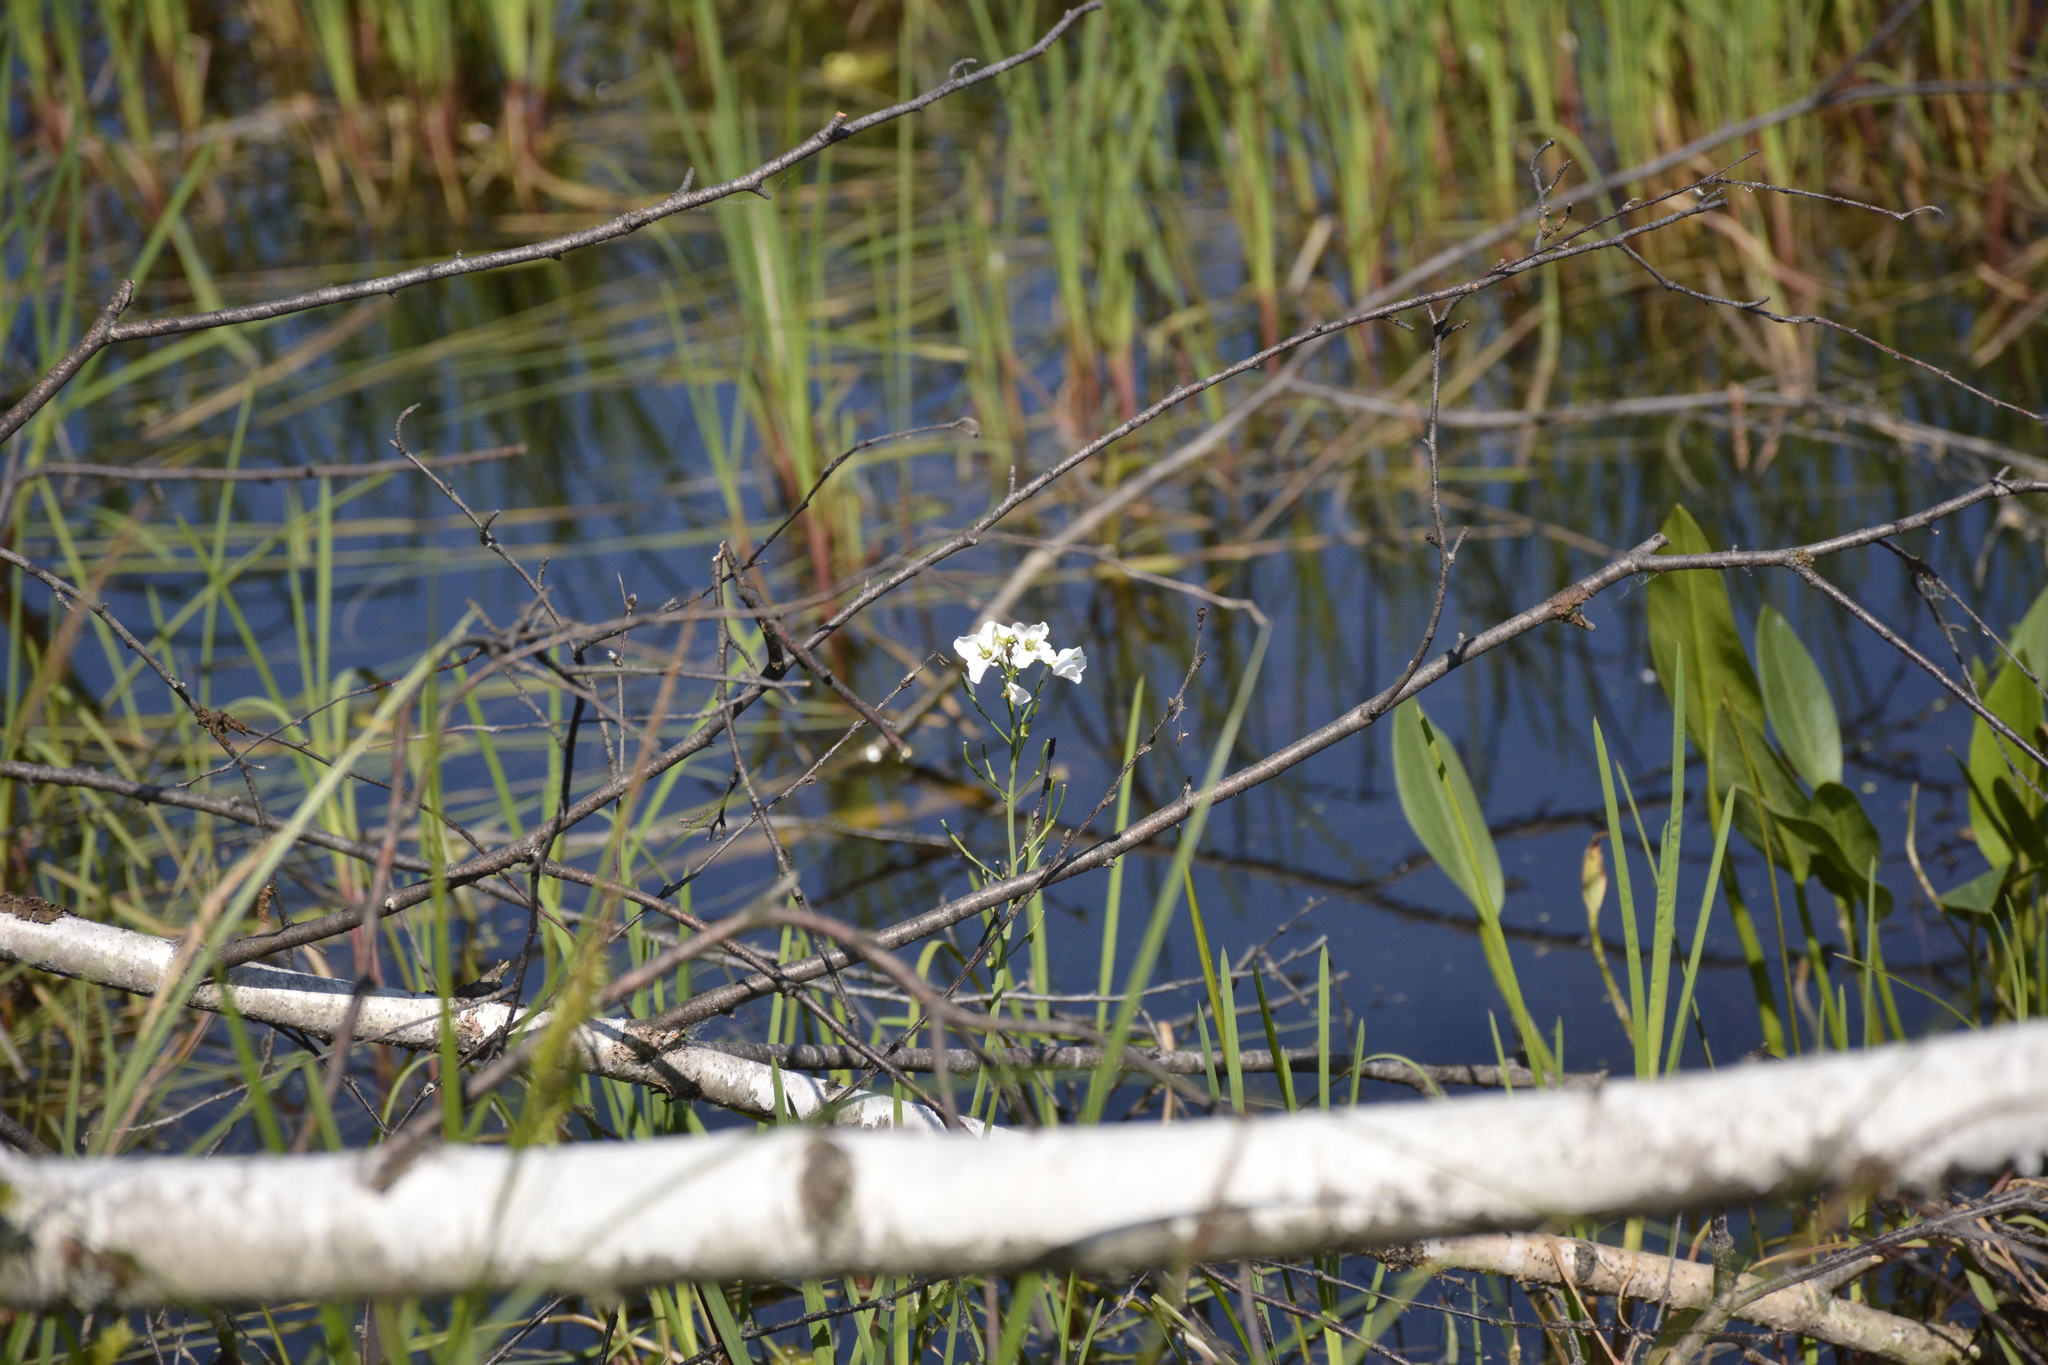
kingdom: Plantae
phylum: Tracheophyta
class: Magnoliopsida
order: Brassicales
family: Brassicaceae
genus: Cardamine
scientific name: Cardamine dentata
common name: Toothed bittercress
